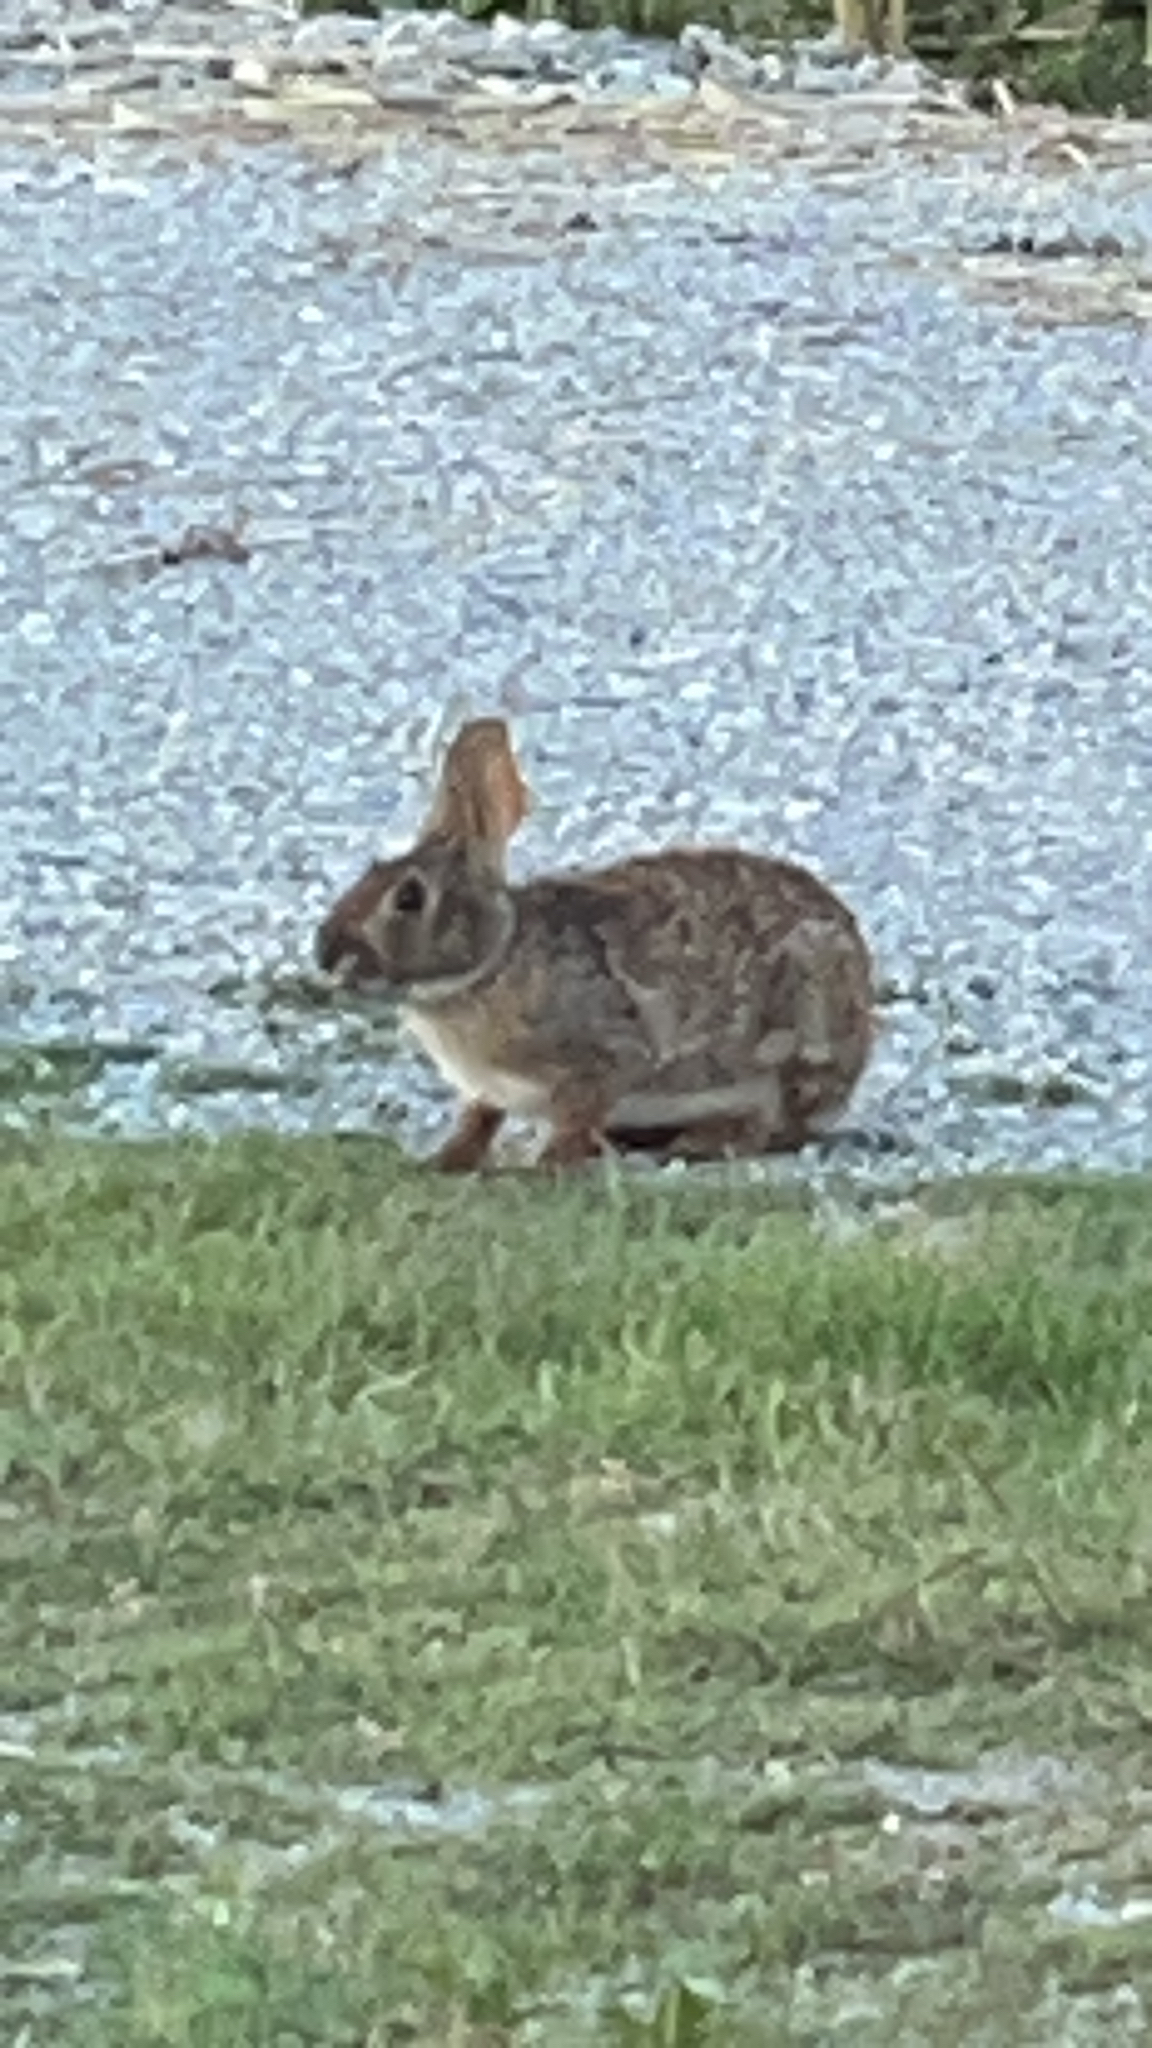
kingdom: Animalia
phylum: Chordata
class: Mammalia
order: Lagomorpha
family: Leporidae
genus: Sylvilagus
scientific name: Sylvilagus floridanus
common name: Eastern cottontail
